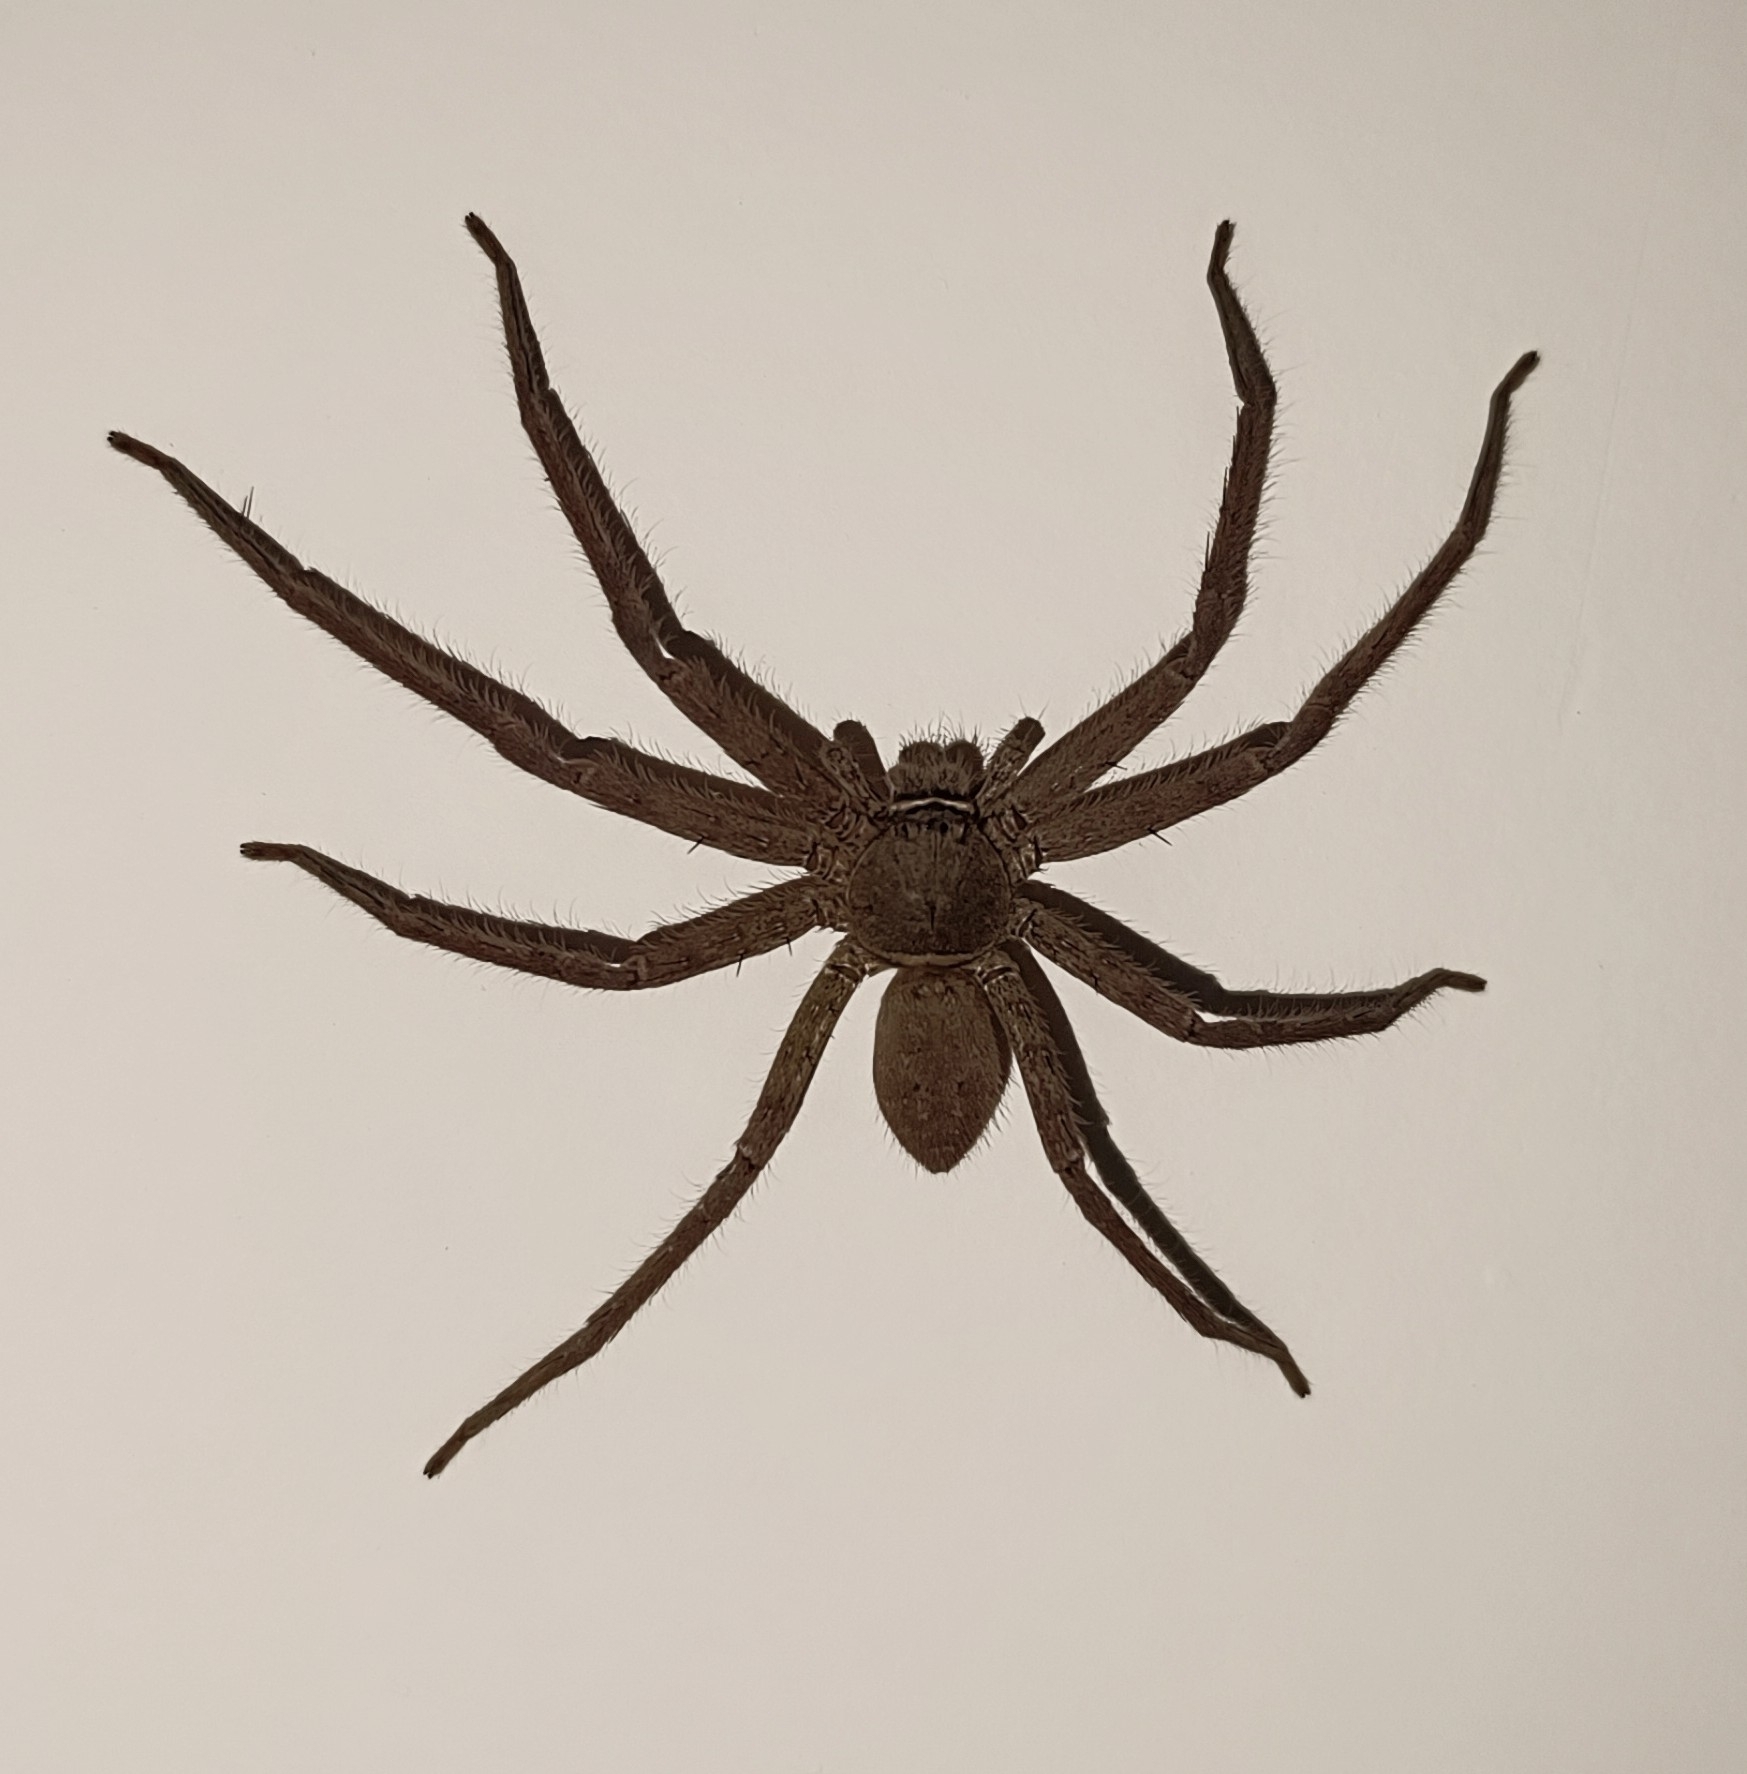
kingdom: Animalia
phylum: Arthropoda
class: Arachnida
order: Araneae
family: Sparassidae
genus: Heteropoda
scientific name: Heteropoda venatoria
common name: Huntsman spider
